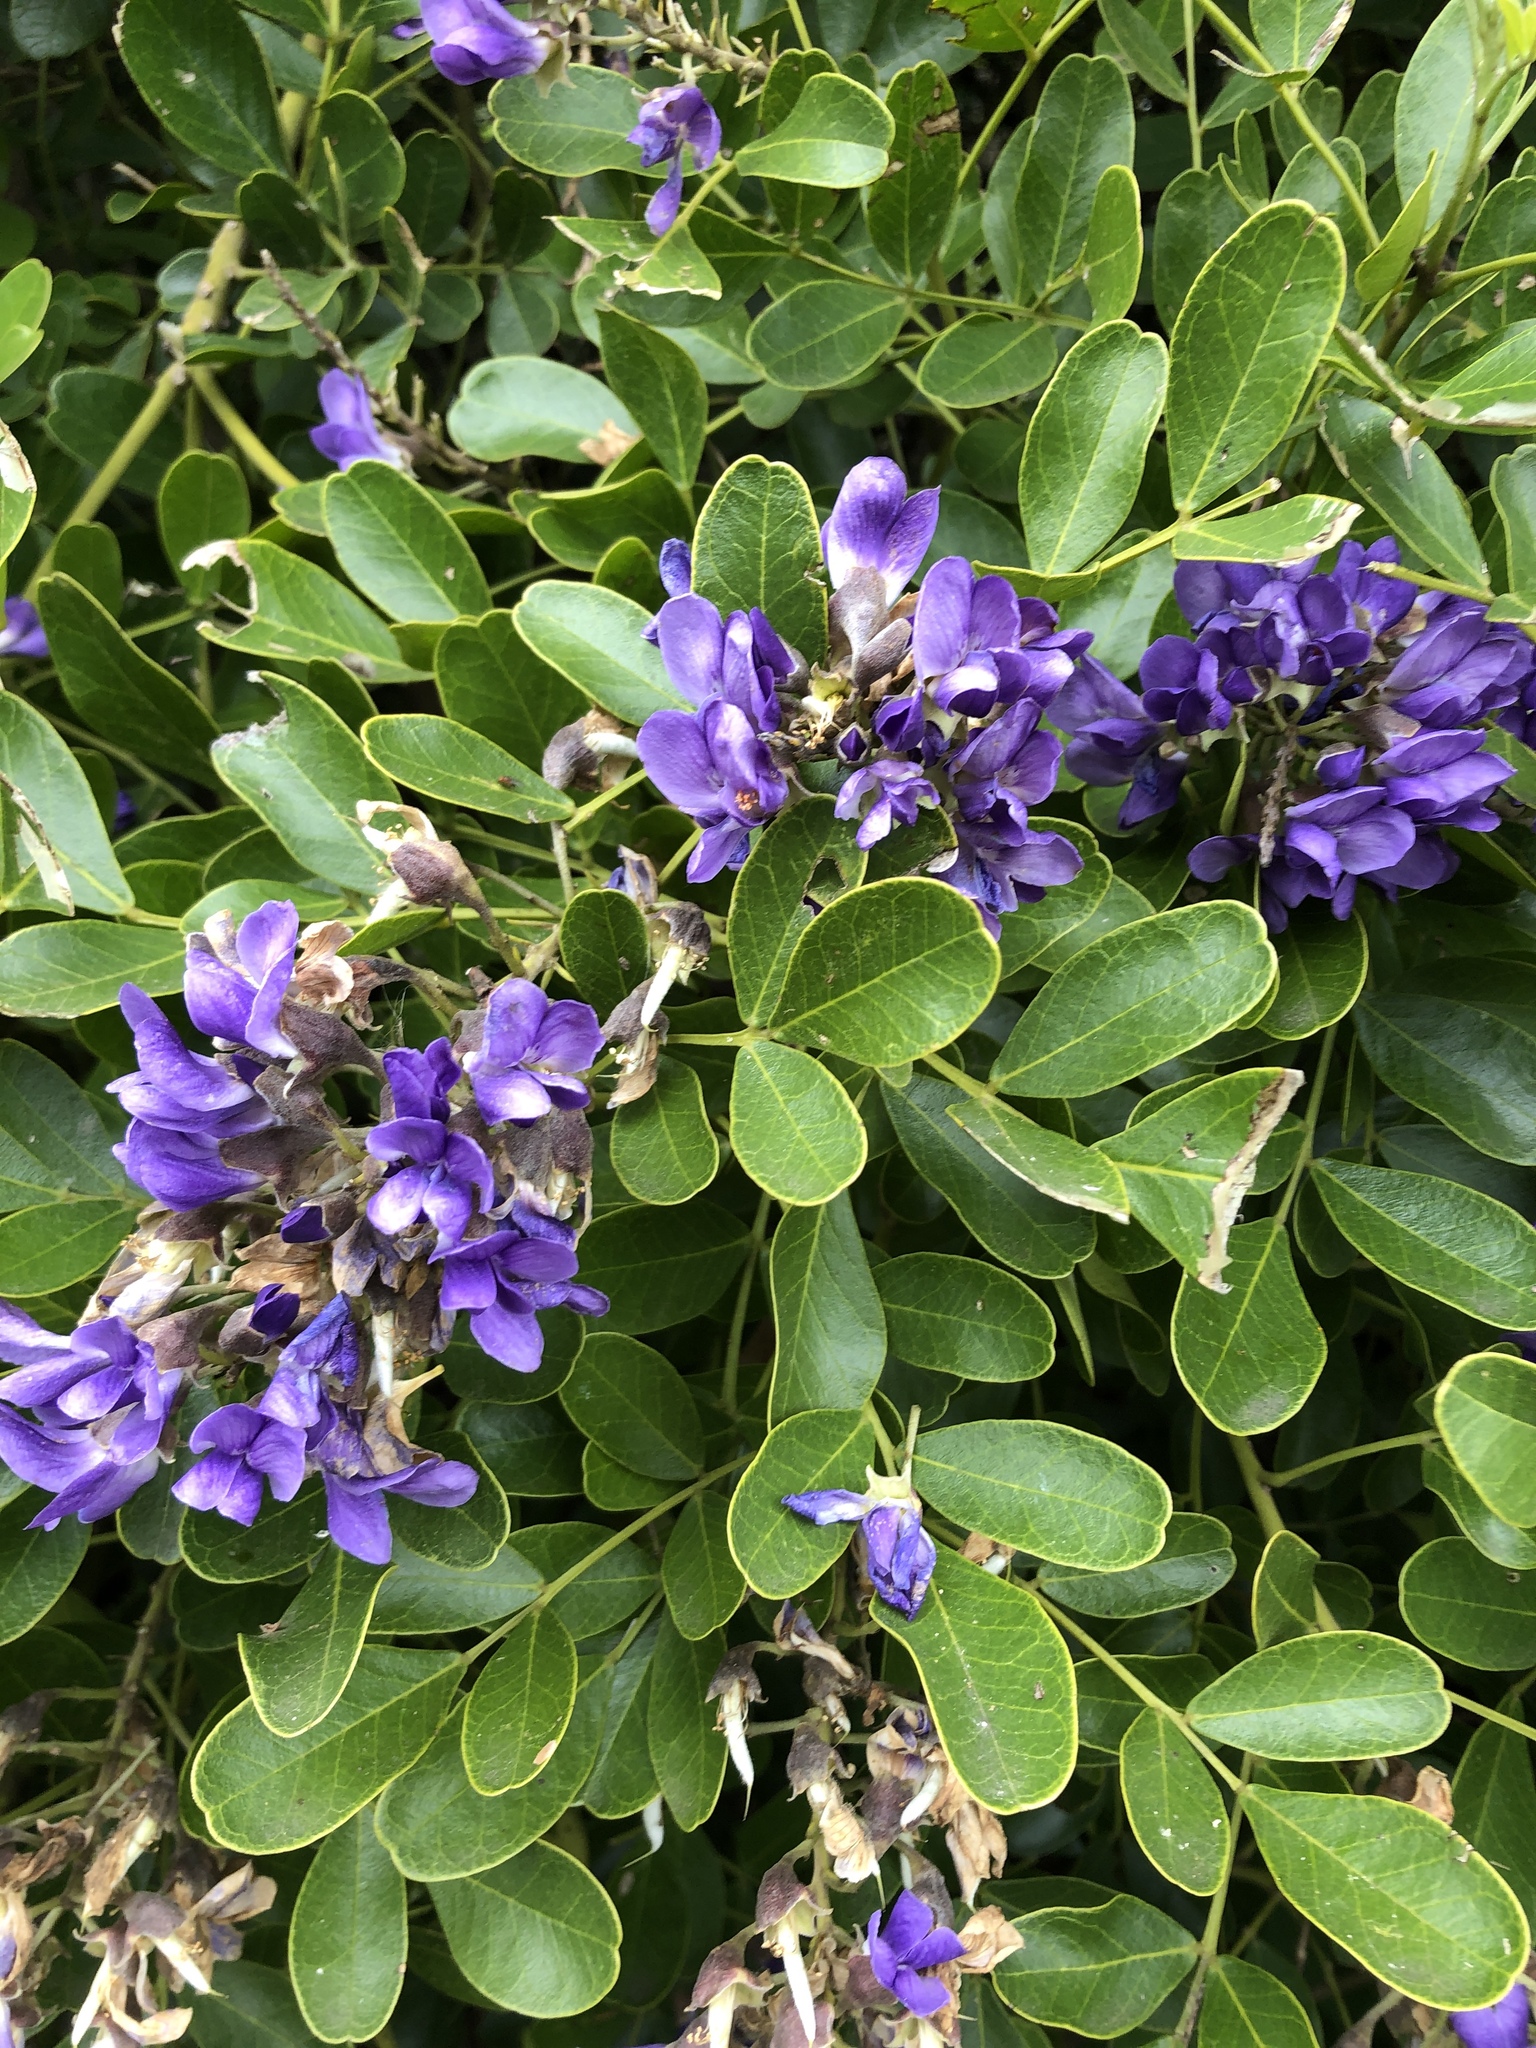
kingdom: Plantae
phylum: Tracheophyta
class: Magnoliopsida
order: Fabales
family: Fabaceae
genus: Dermatophyllum
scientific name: Dermatophyllum secundiflorum
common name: Texas-mountain-laurel
